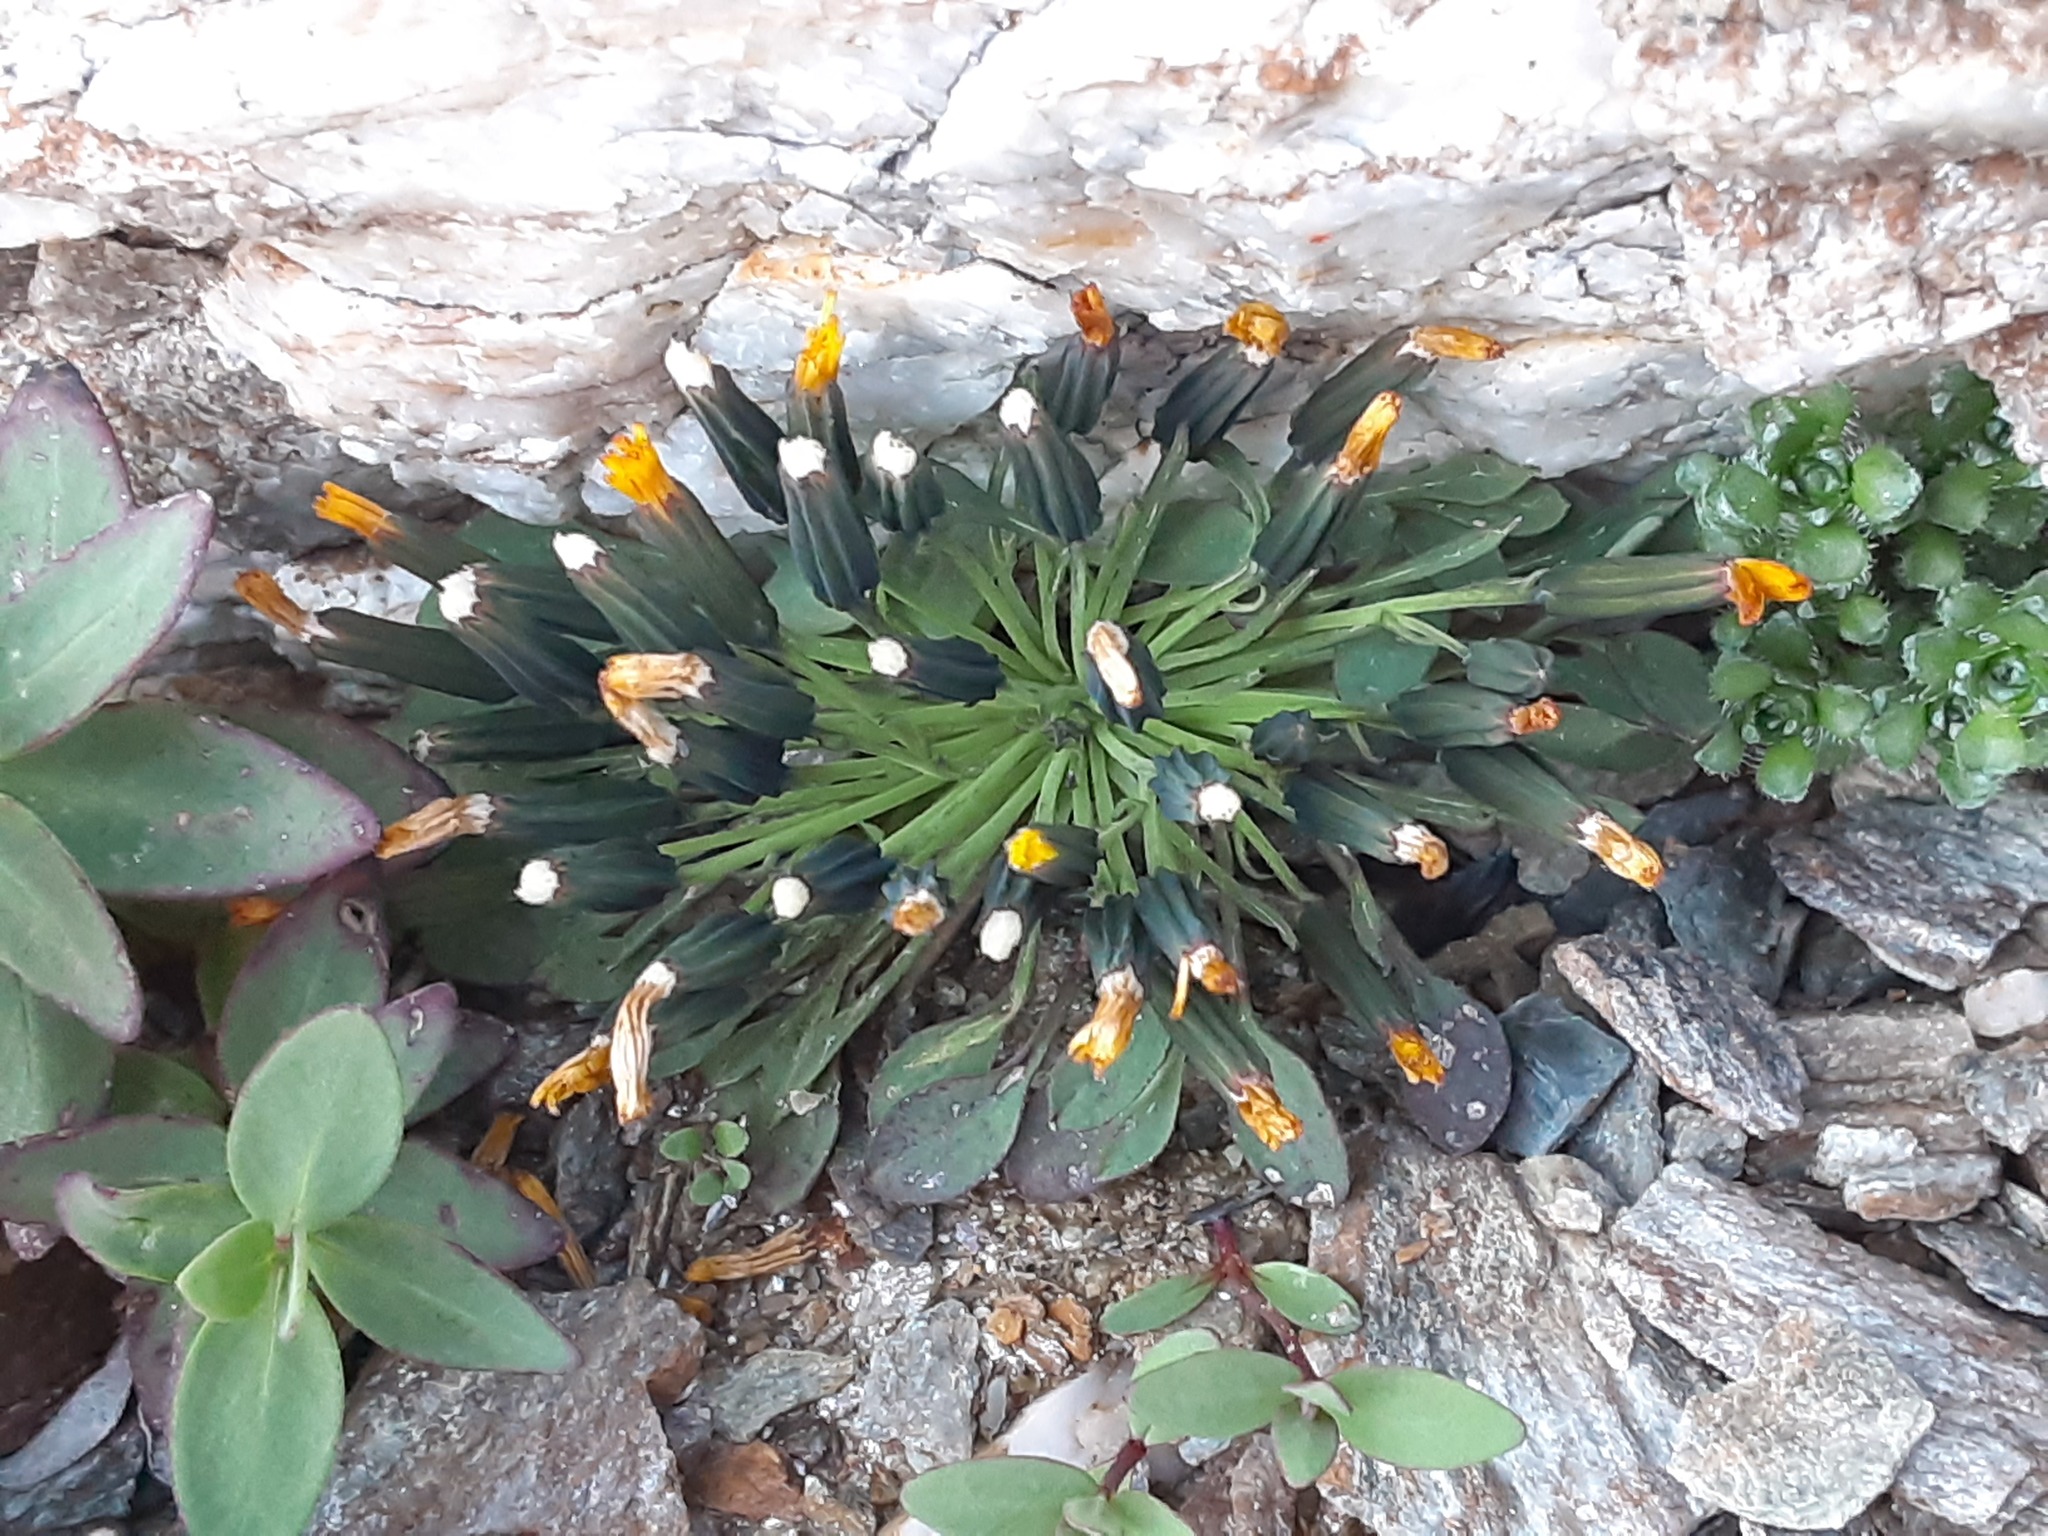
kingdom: Plantae
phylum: Tracheophyta
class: Magnoliopsida
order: Asterales
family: Asteraceae
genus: Askellia
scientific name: Askellia pygmaea
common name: Dwarf alpine hawksbeard
